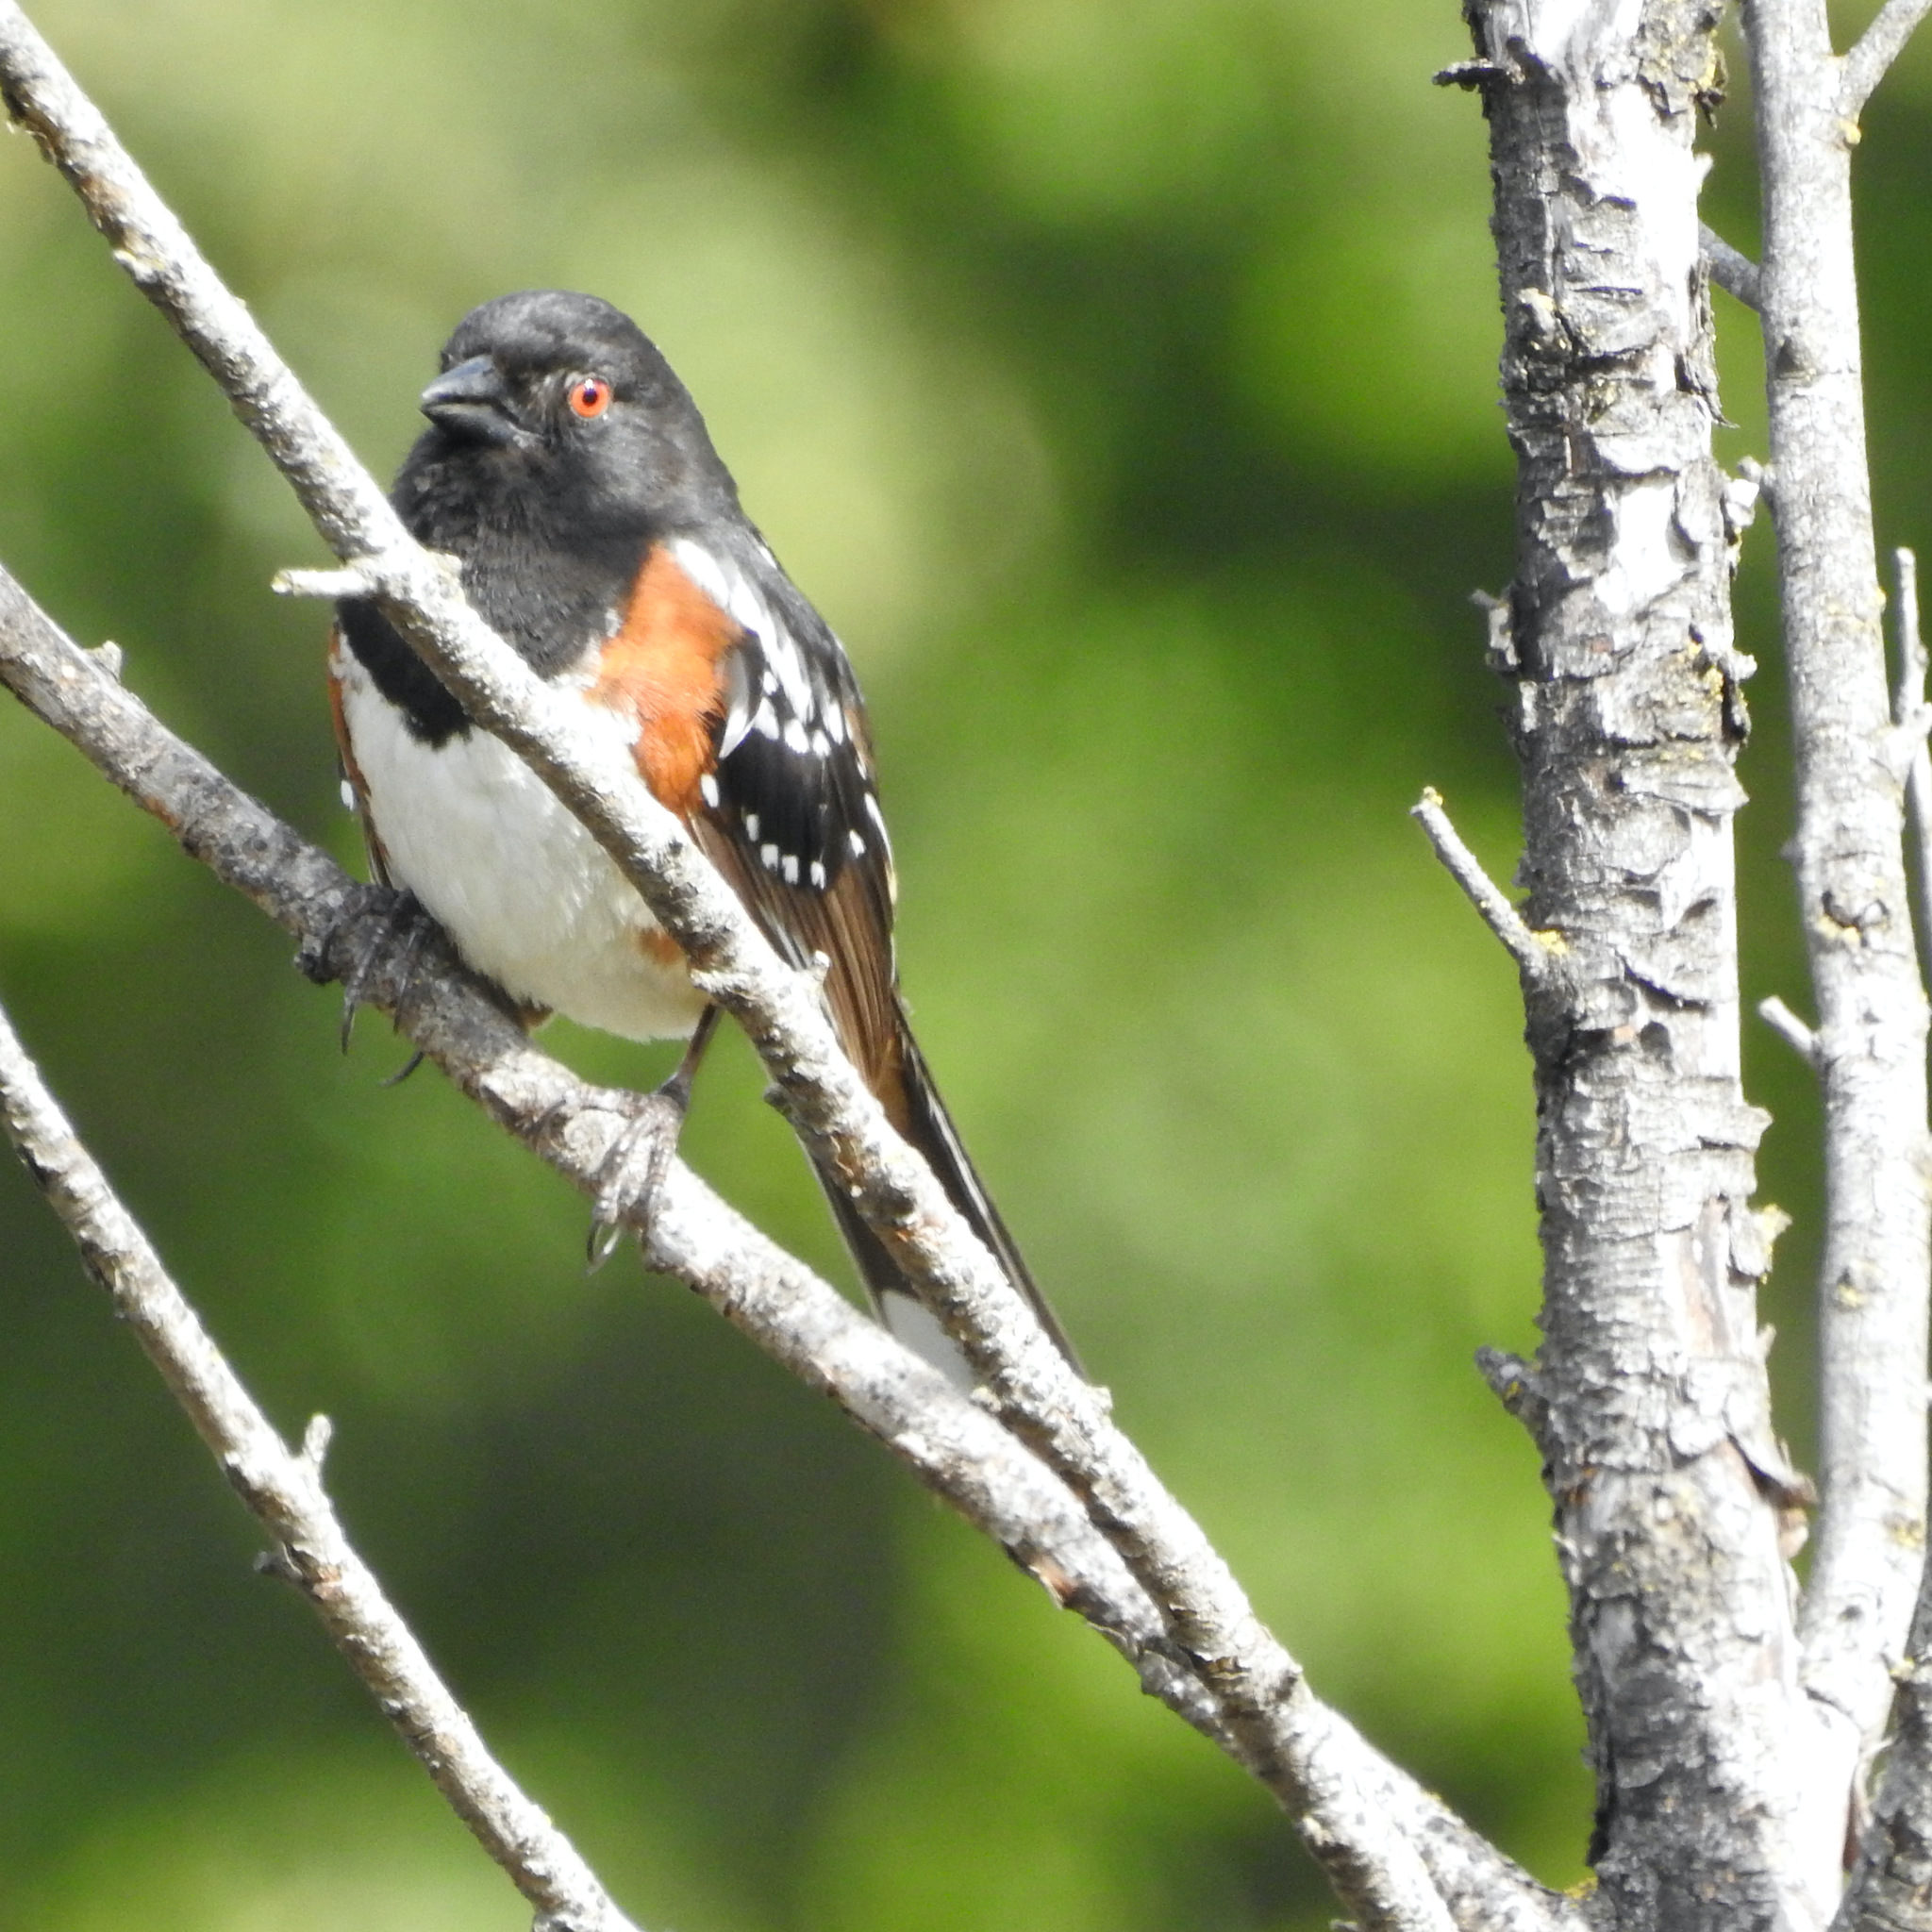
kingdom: Animalia
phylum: Chordata
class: Aves
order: Passeriformes
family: Passerellidae
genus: Pipilo
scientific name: Pipilo maculatus
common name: Spotted towhee
